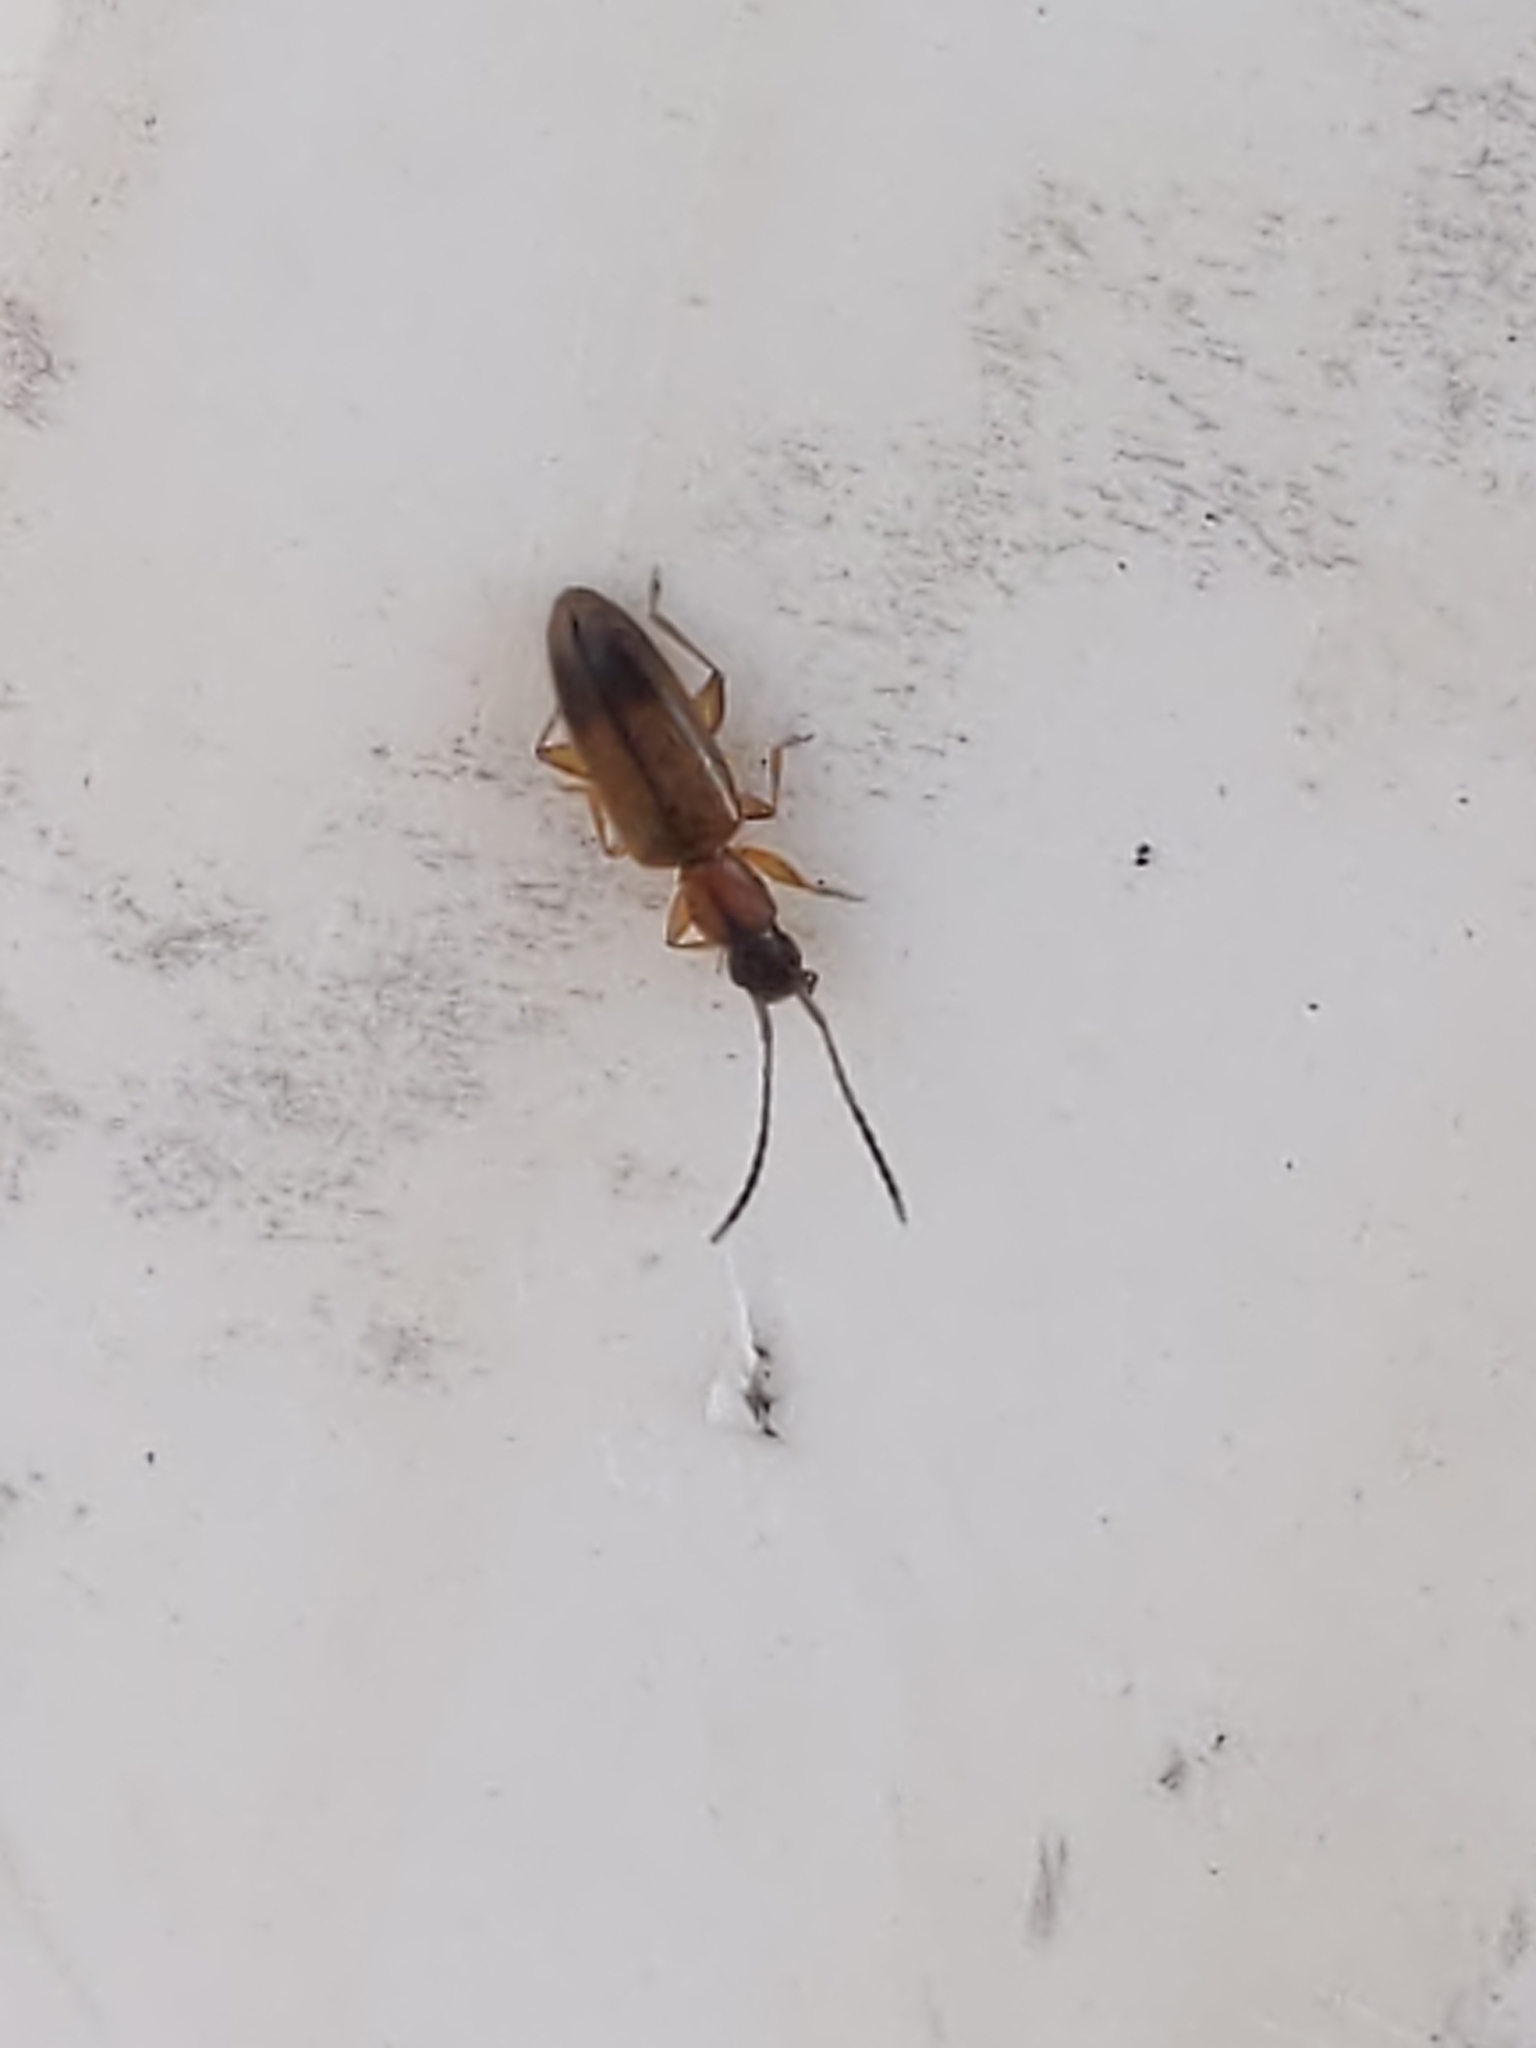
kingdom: Animalia
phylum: Arthropoda
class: Insecta
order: Coleoptera
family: Silvanidae
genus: Telephanus
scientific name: Telephanus velox
